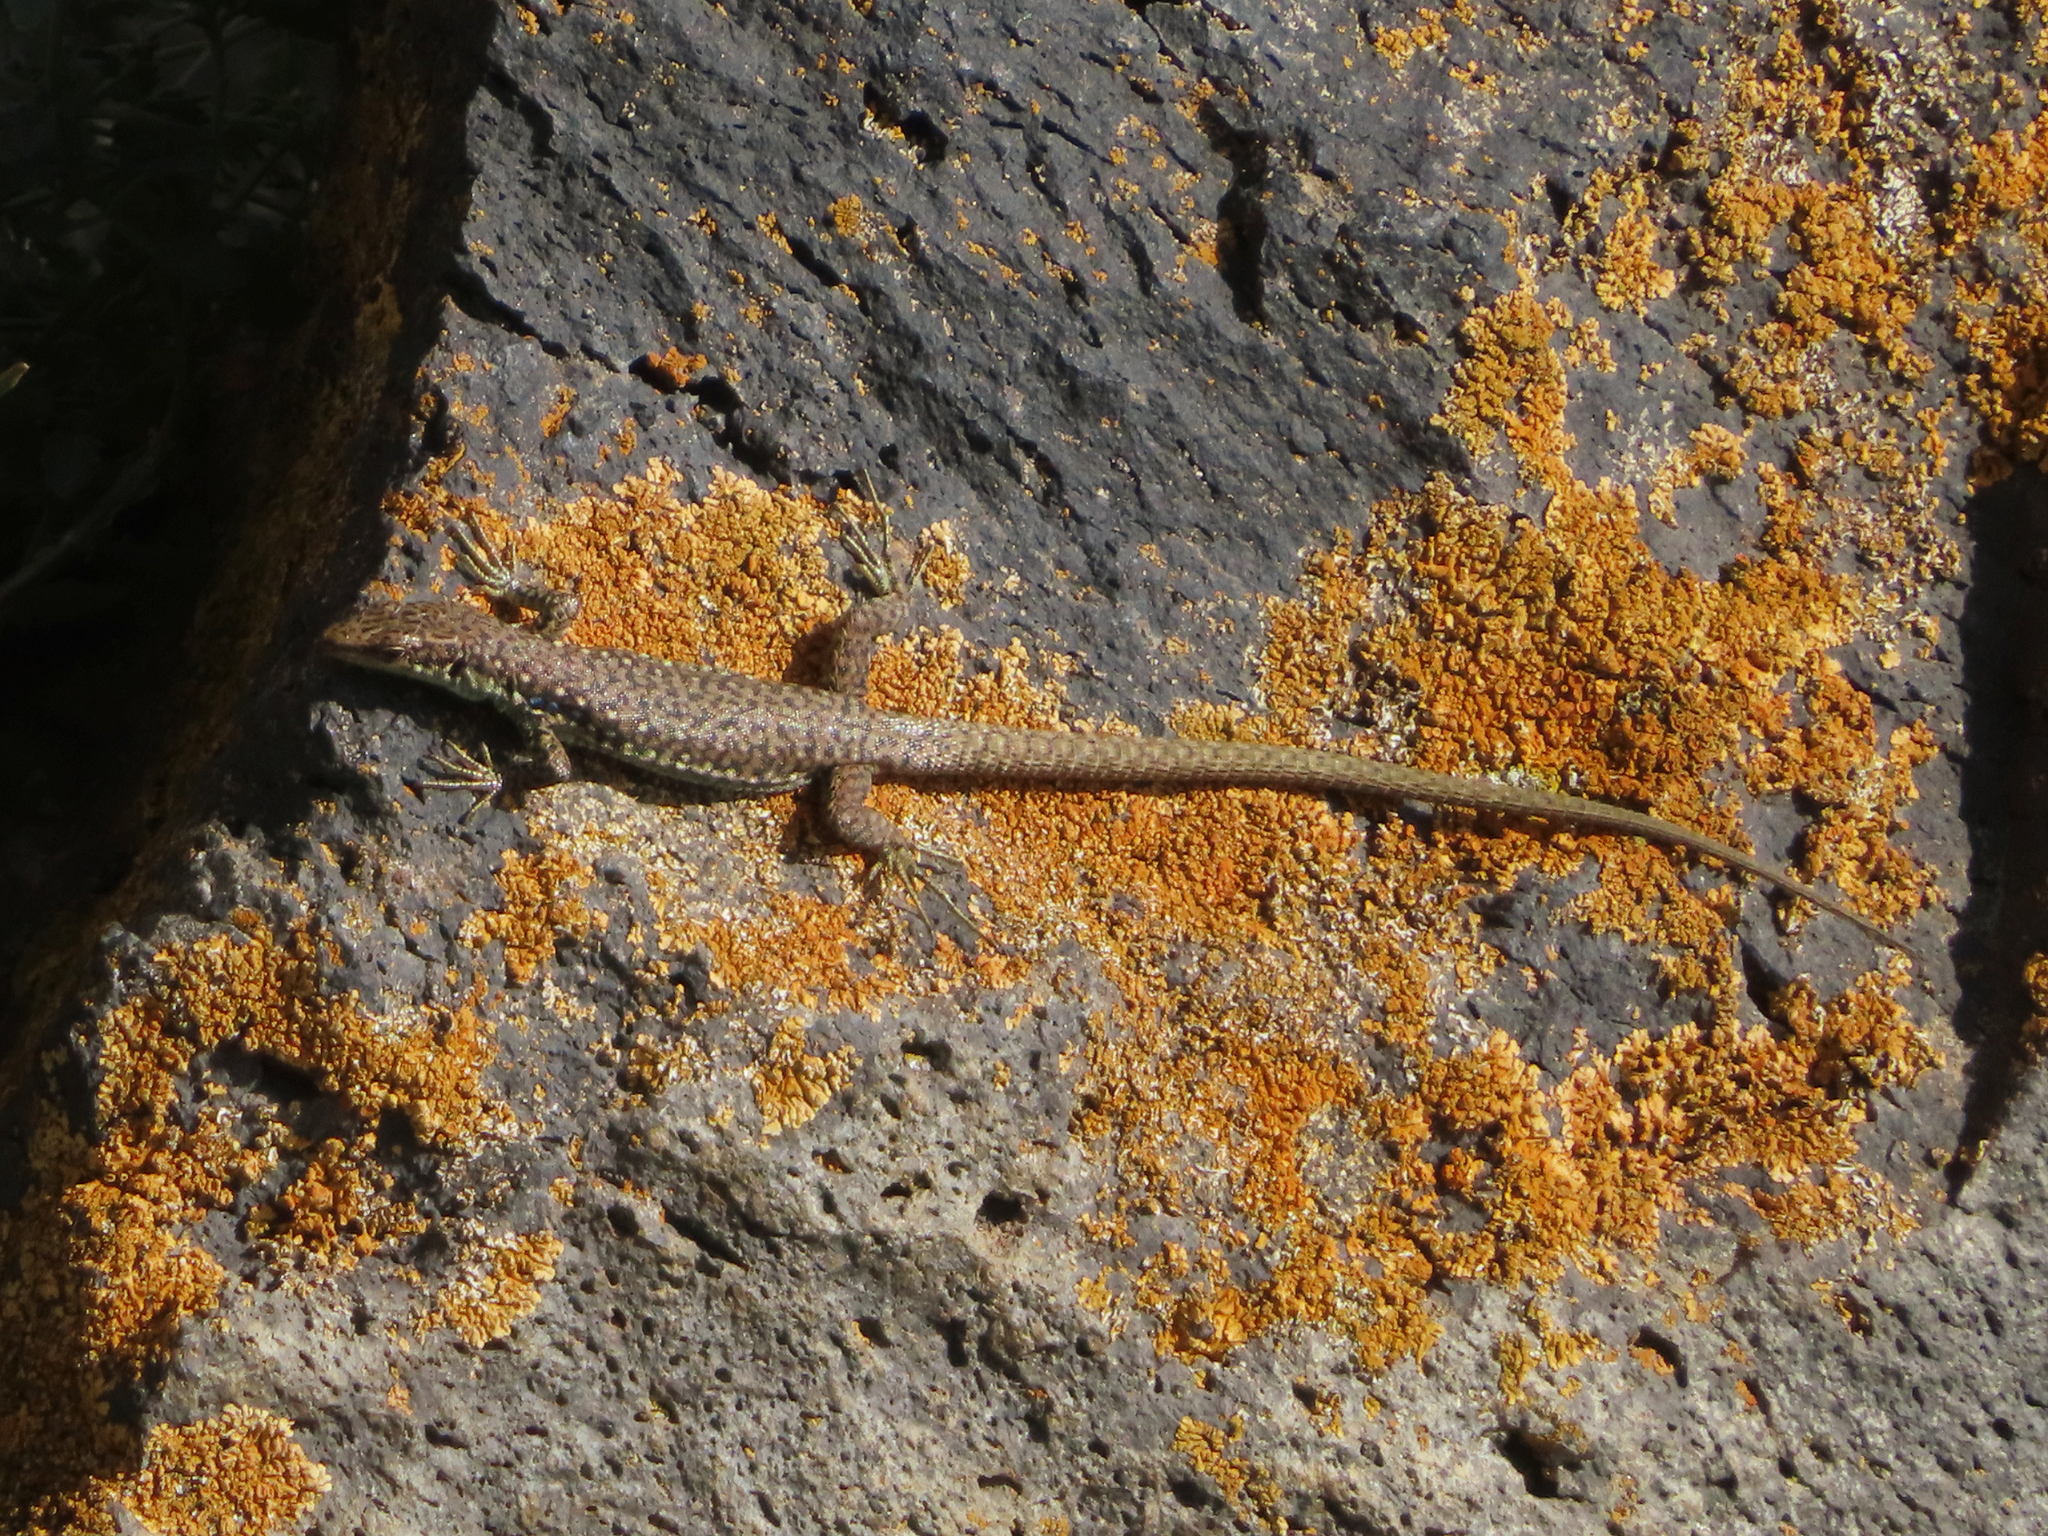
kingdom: Animalia
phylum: Chordata
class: Squamata
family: Lacertidae
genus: Darevskia
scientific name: Darevskia
